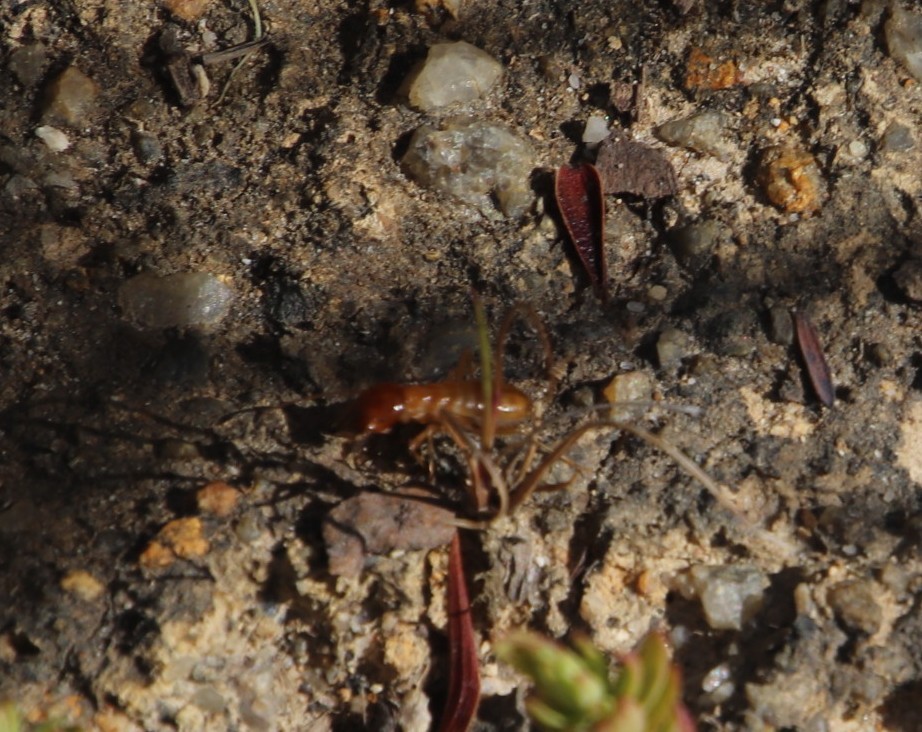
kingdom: Animalia
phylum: Arthropoda
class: Insecta
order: Blattodea
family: Hodotermitidae
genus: Microhodotermes
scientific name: Microhodotermes viator
